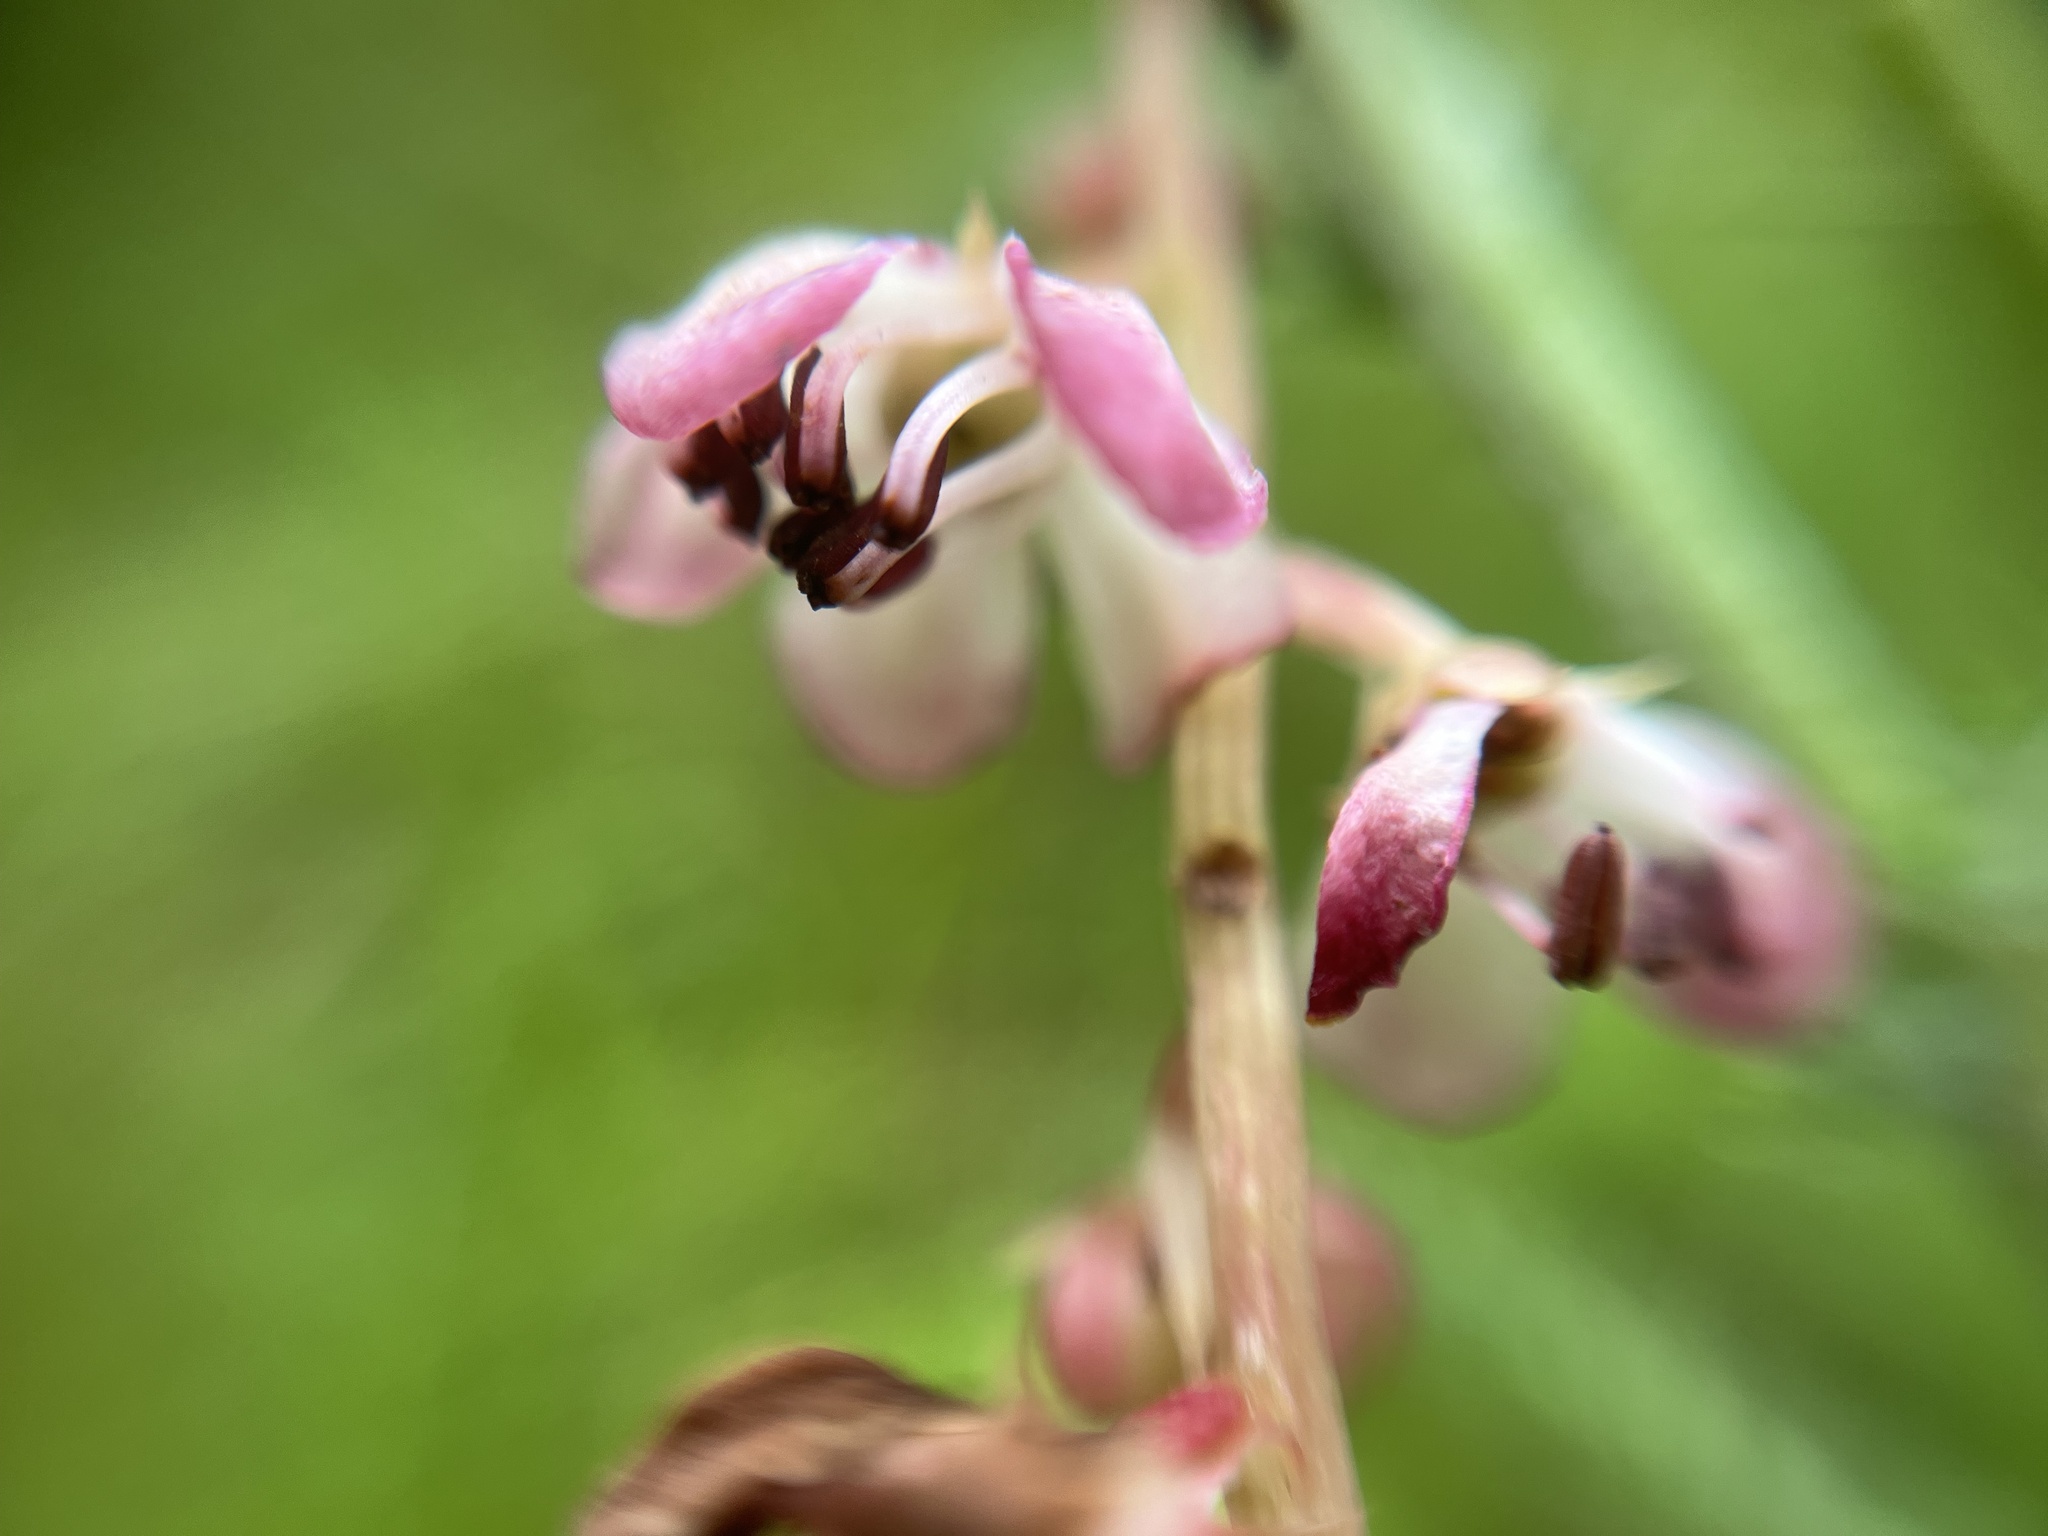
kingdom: Plantae
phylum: Tracheophyta
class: Magnoliopsida
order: Ericales
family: Ericaceae
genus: Pyrola
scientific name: Pyrola asarifolia
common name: Bog wintergreen
